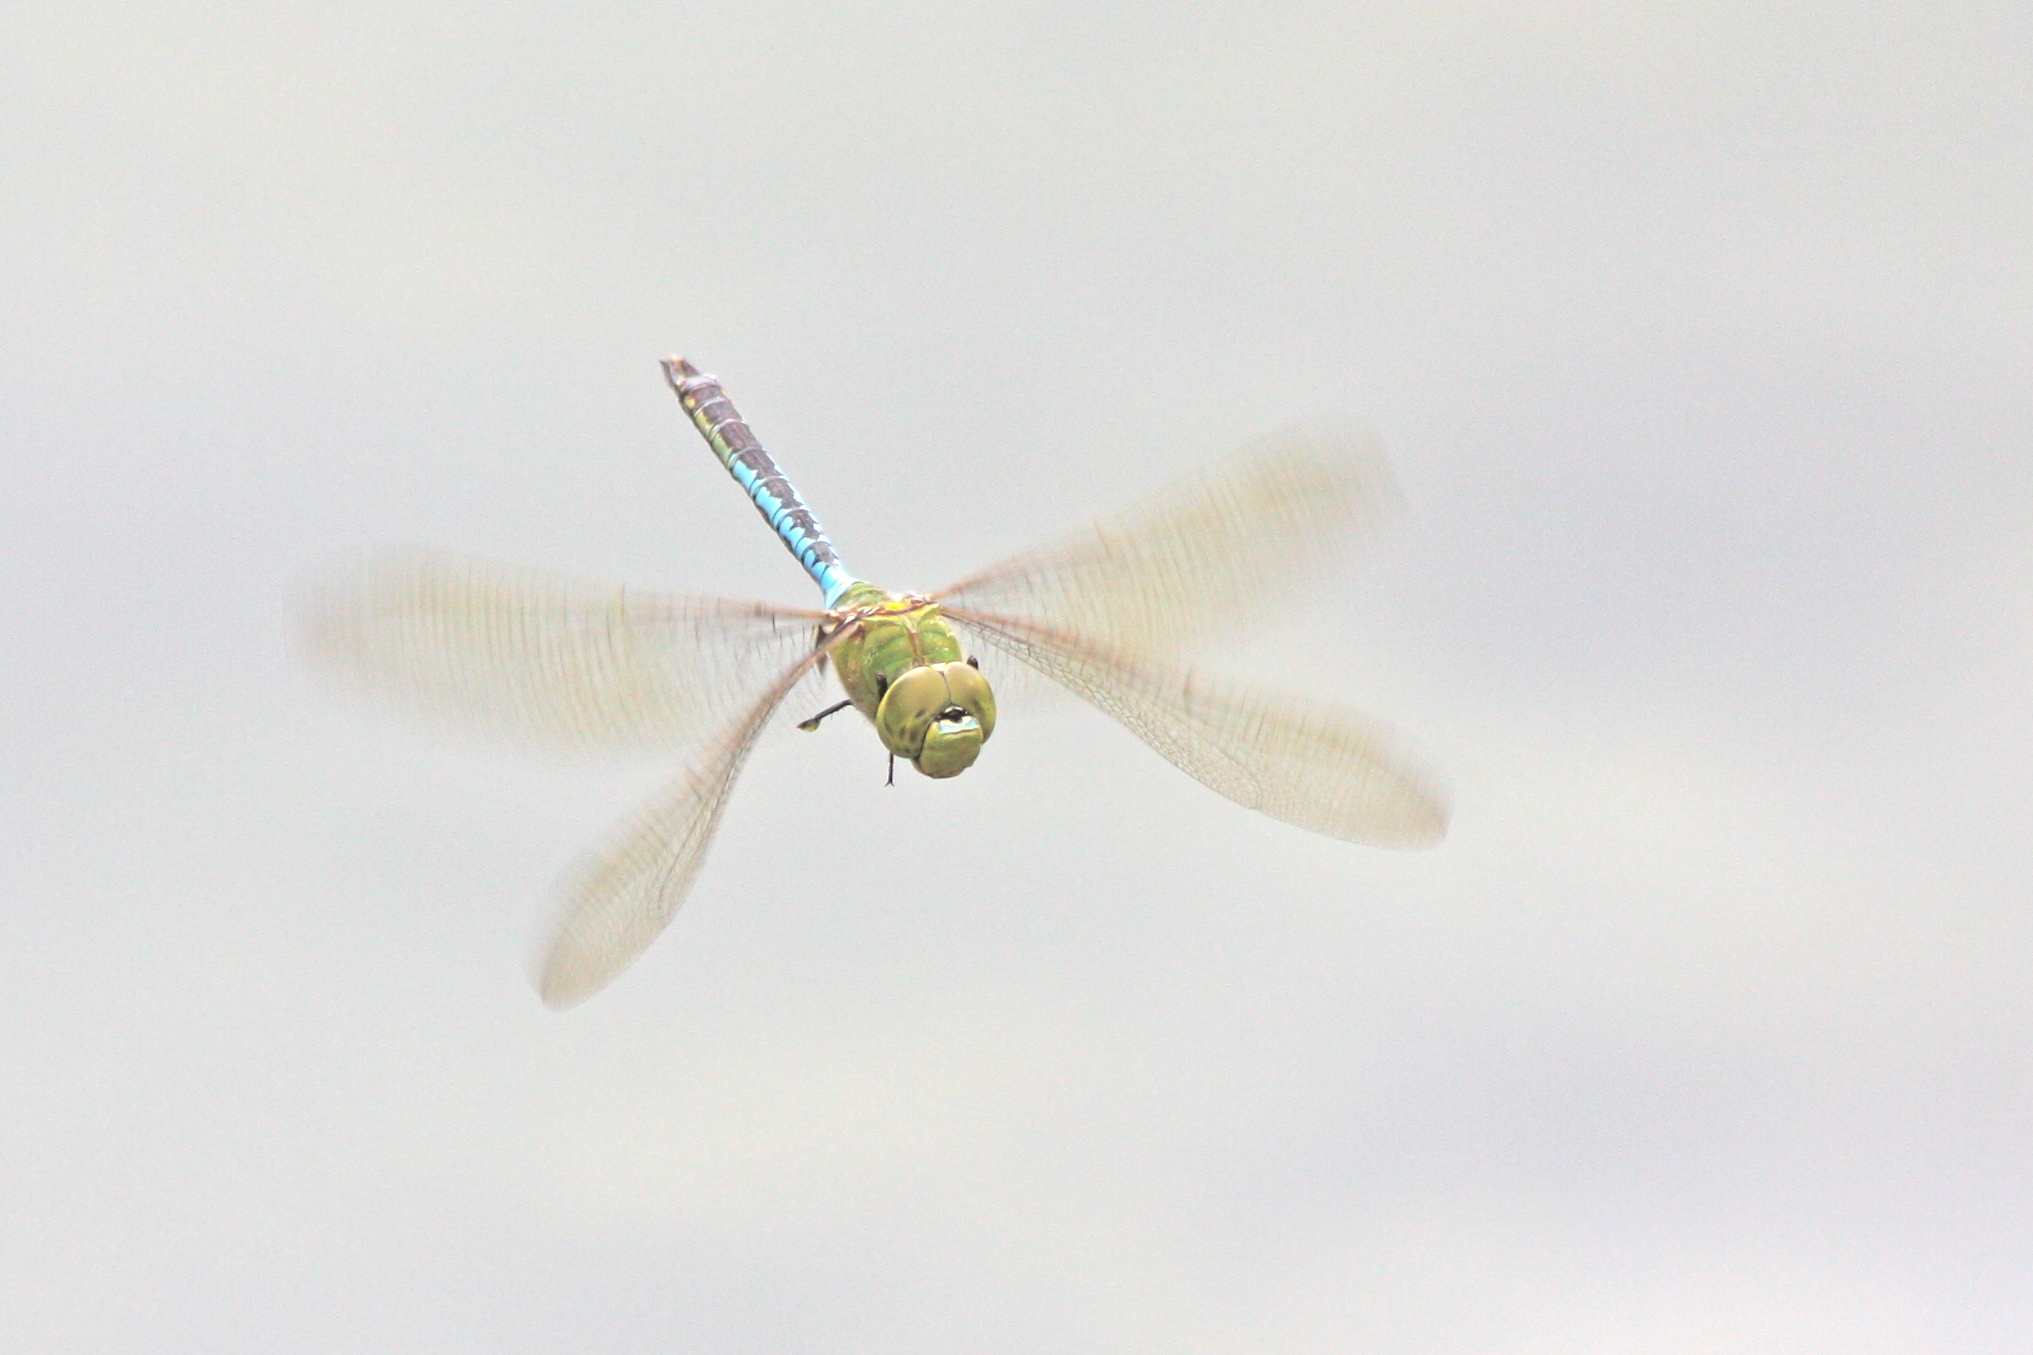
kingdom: Animalia
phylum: Arthropoda
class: Insecta
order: Odonata
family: Aeshnidae
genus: Anax
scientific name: Anax junius
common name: Common green darner
